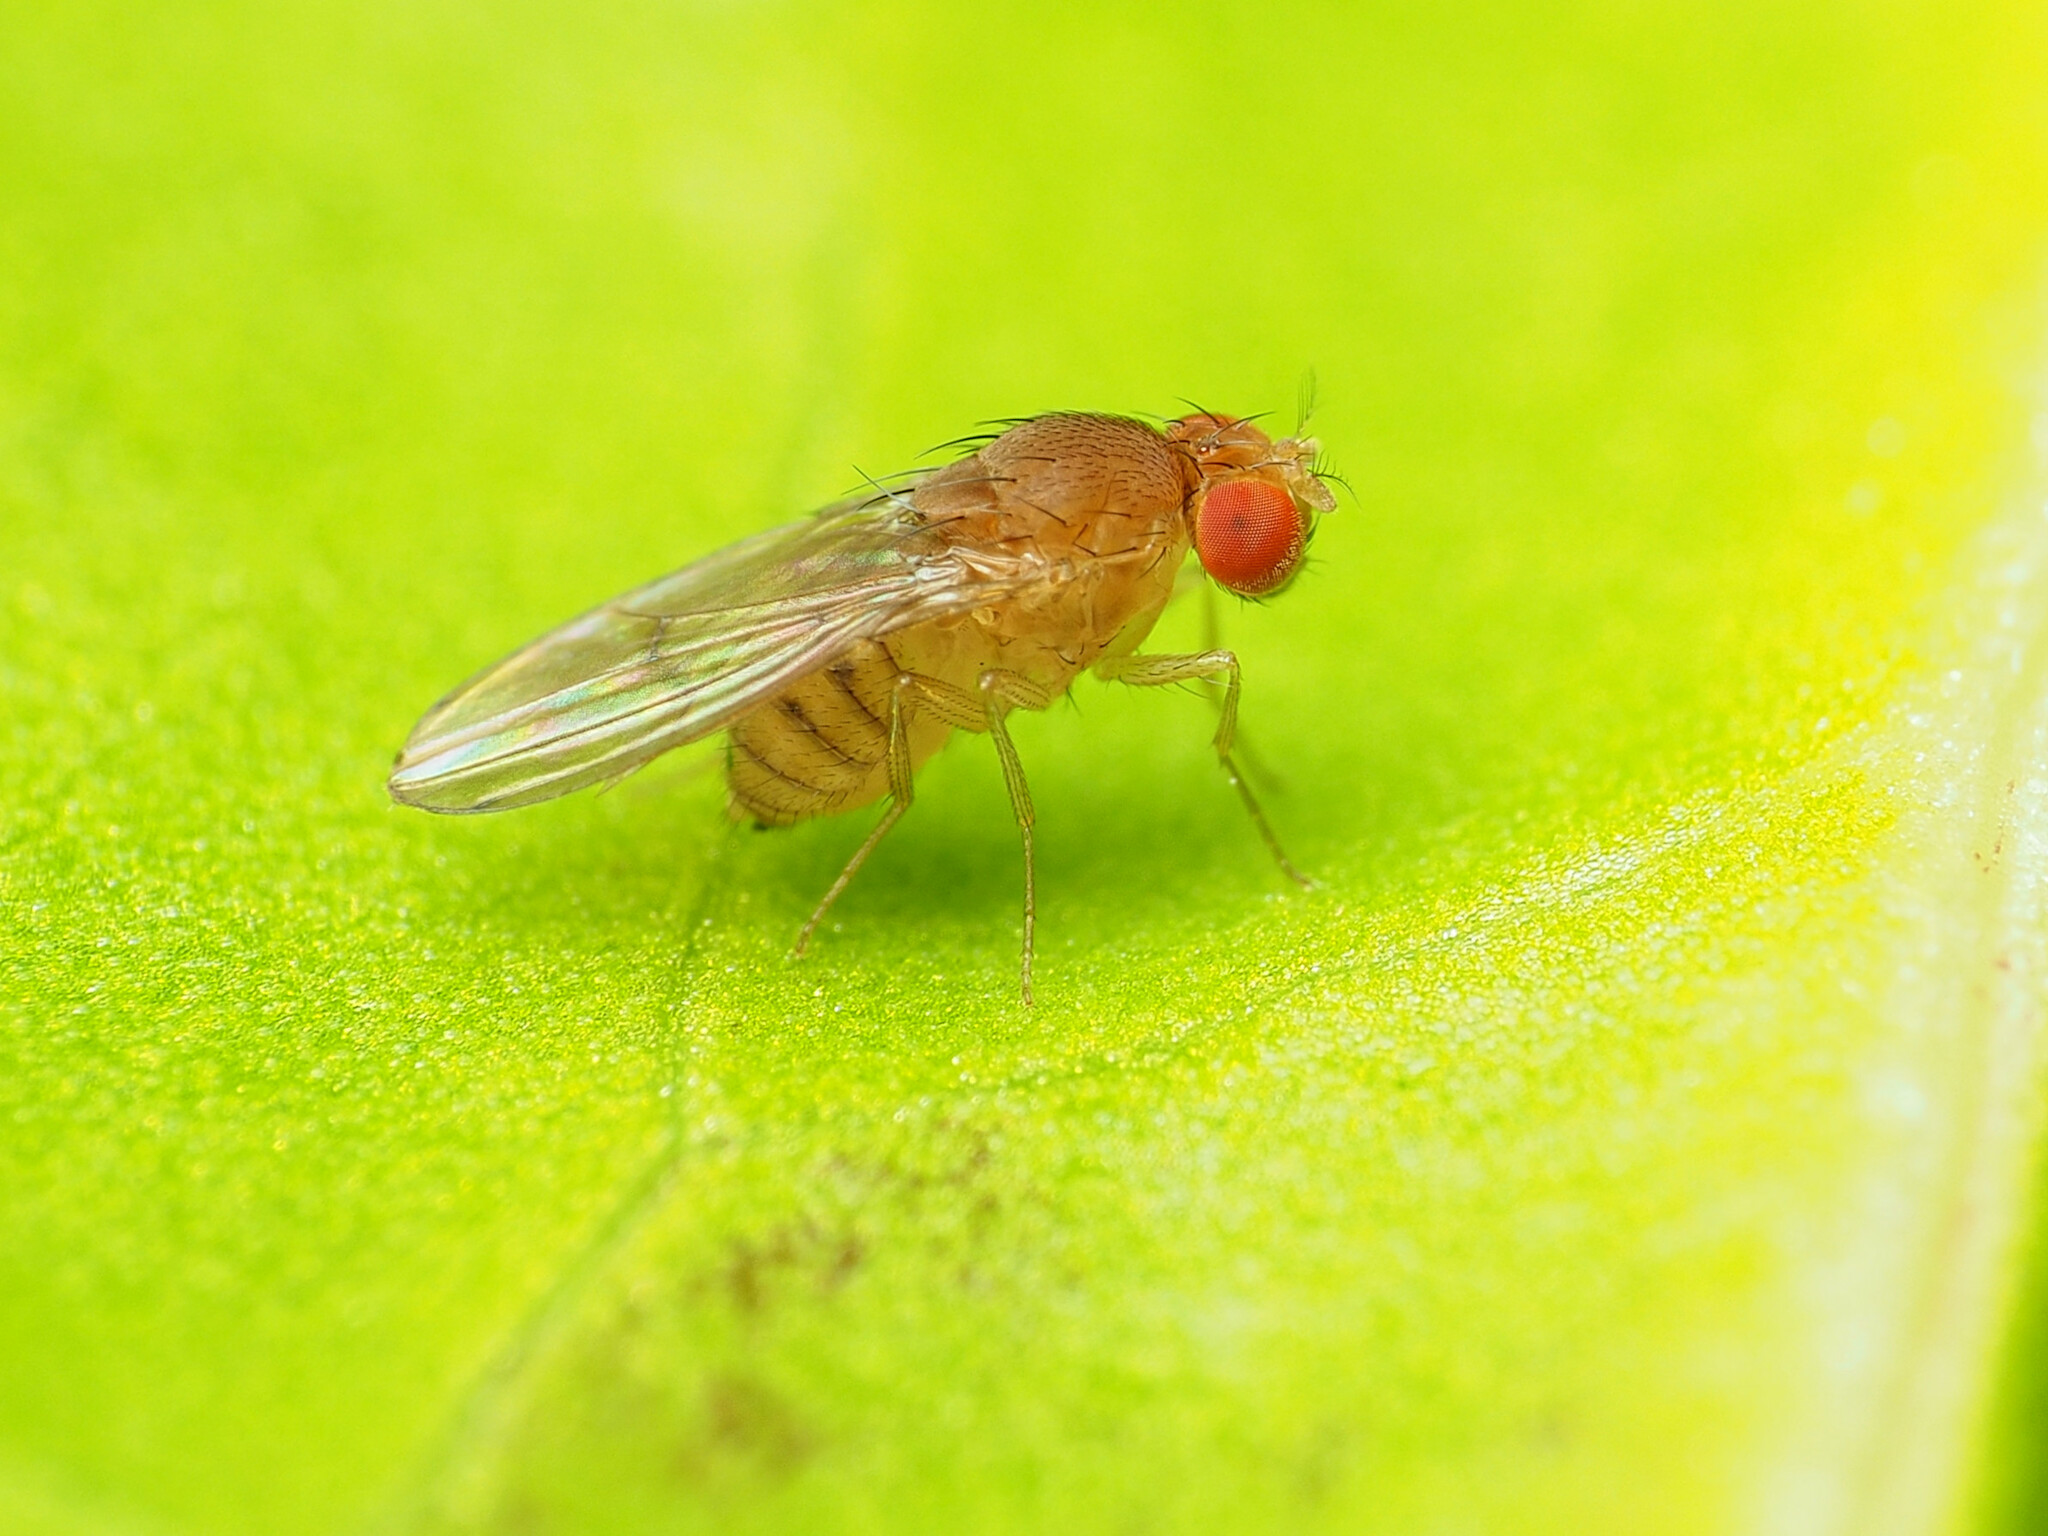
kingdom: Animalia
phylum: Arthropoda
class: Insecta
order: Diptera
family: Drosophilidae
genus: Drosophila
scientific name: Drosophila tripunctata
